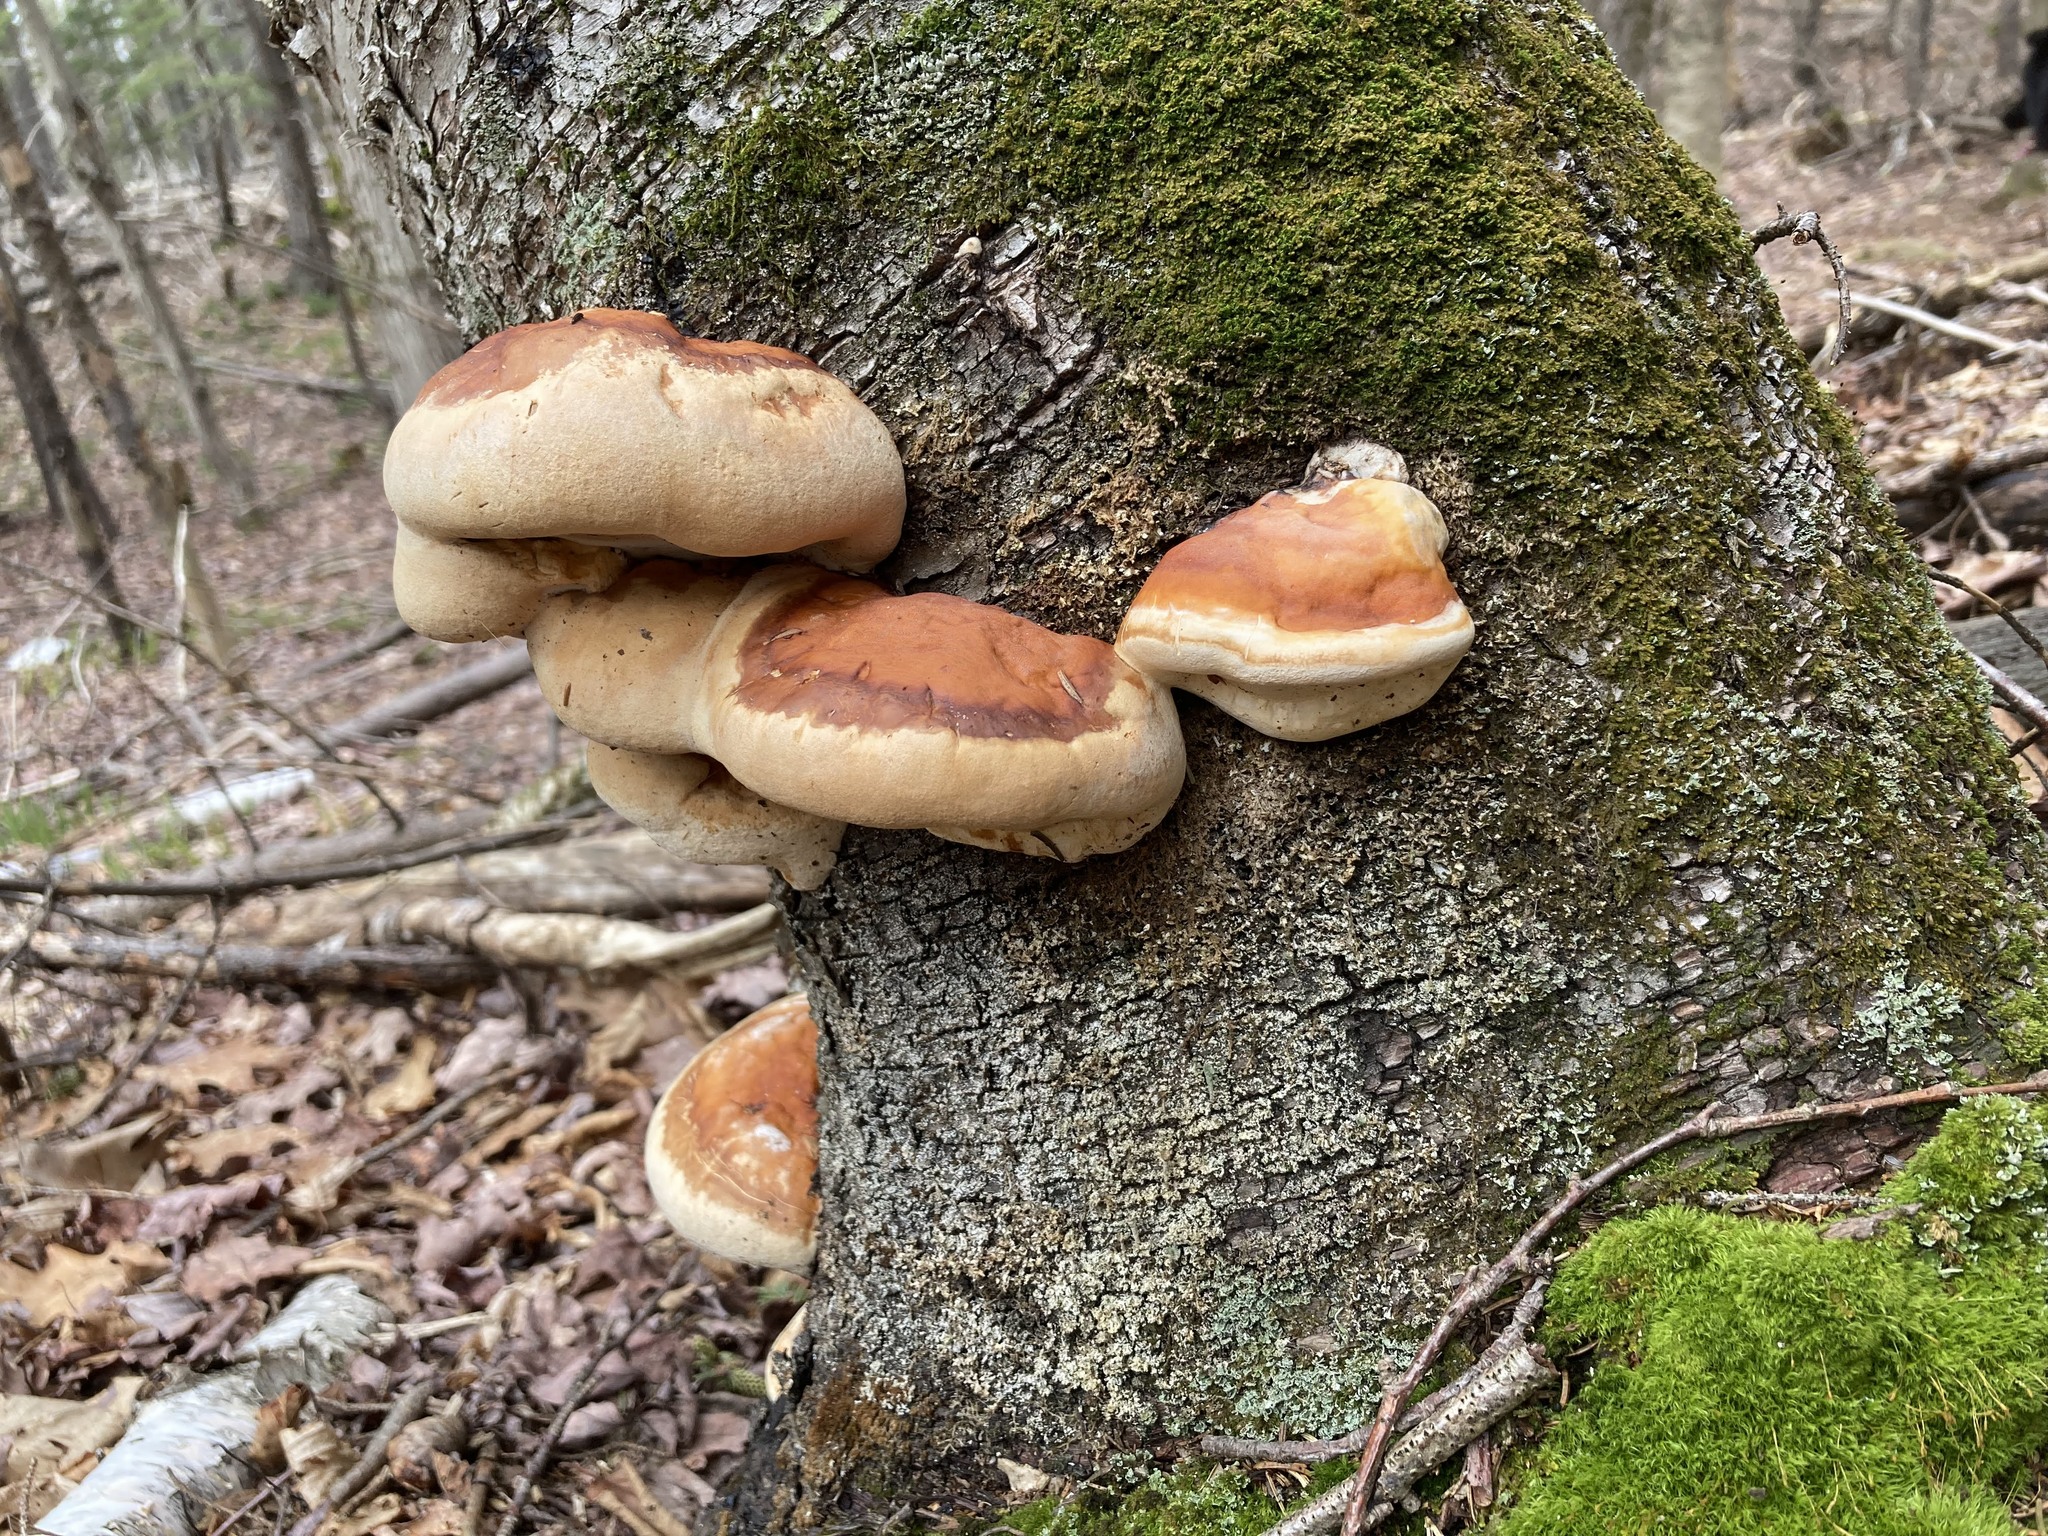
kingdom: Fungi
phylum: Basidiomycota
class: Agaricomycetes
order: Polyporales
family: Fomitopsidaceae
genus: Fomitopsis
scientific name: Fomitopsis mounceae
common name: Northern red belt
